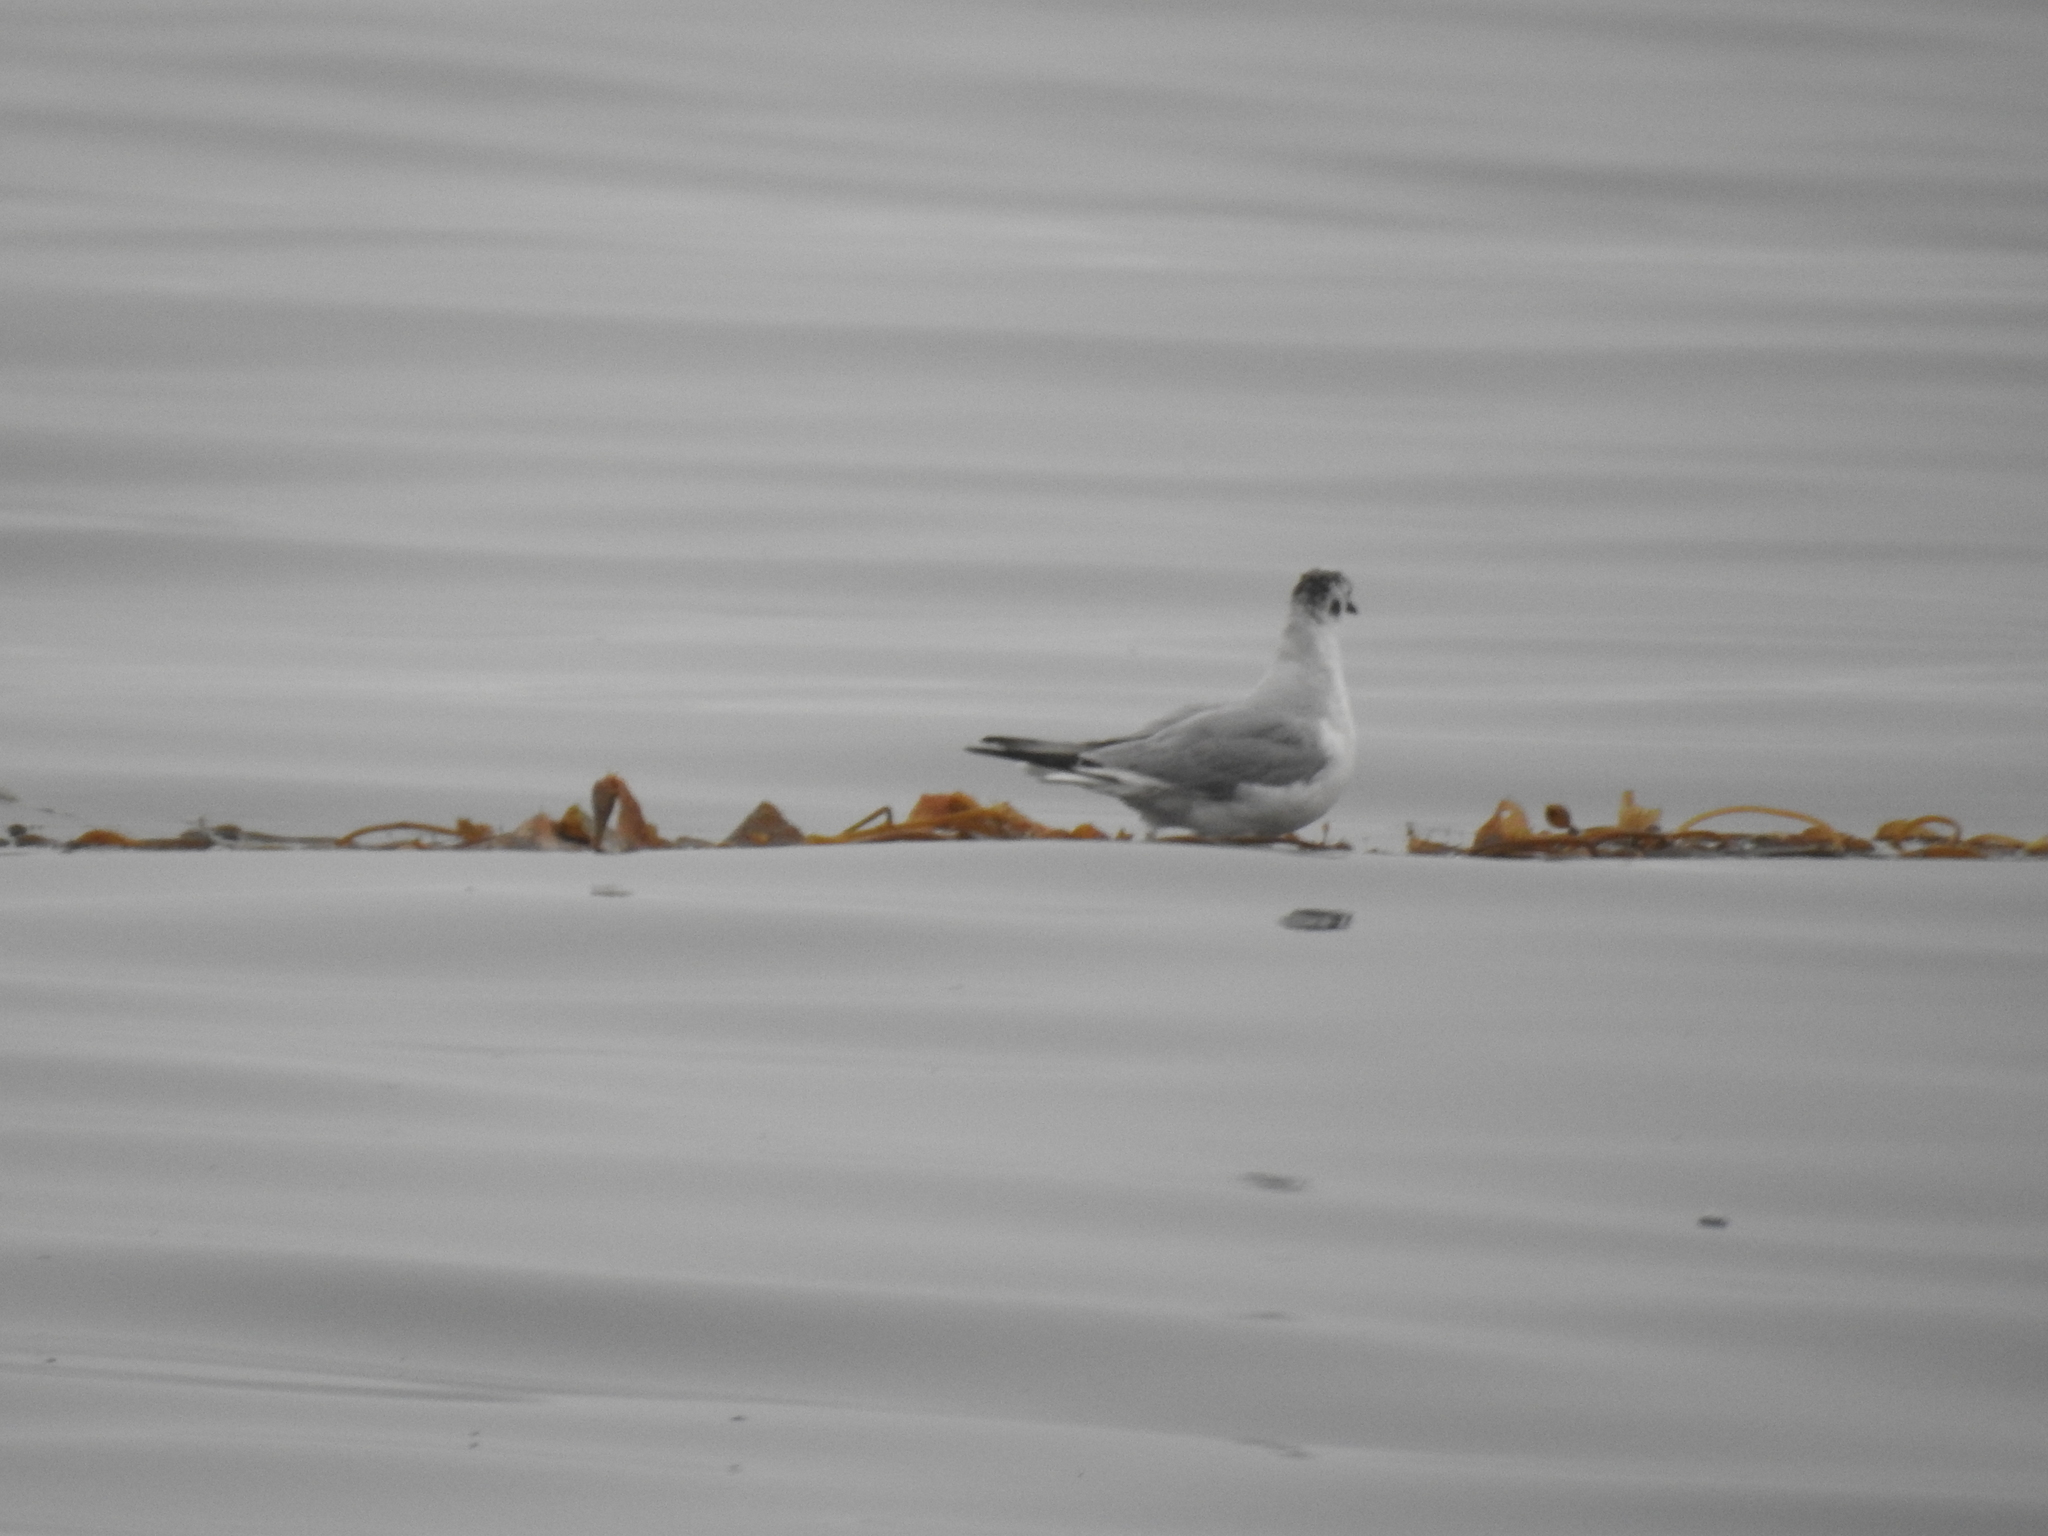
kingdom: Animalia
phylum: Chordata
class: Aves
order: Charadriiformes
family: Laridae
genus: Chroicocephalus
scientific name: Chroicocephalus philadelphia
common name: Bonaparte's gull
